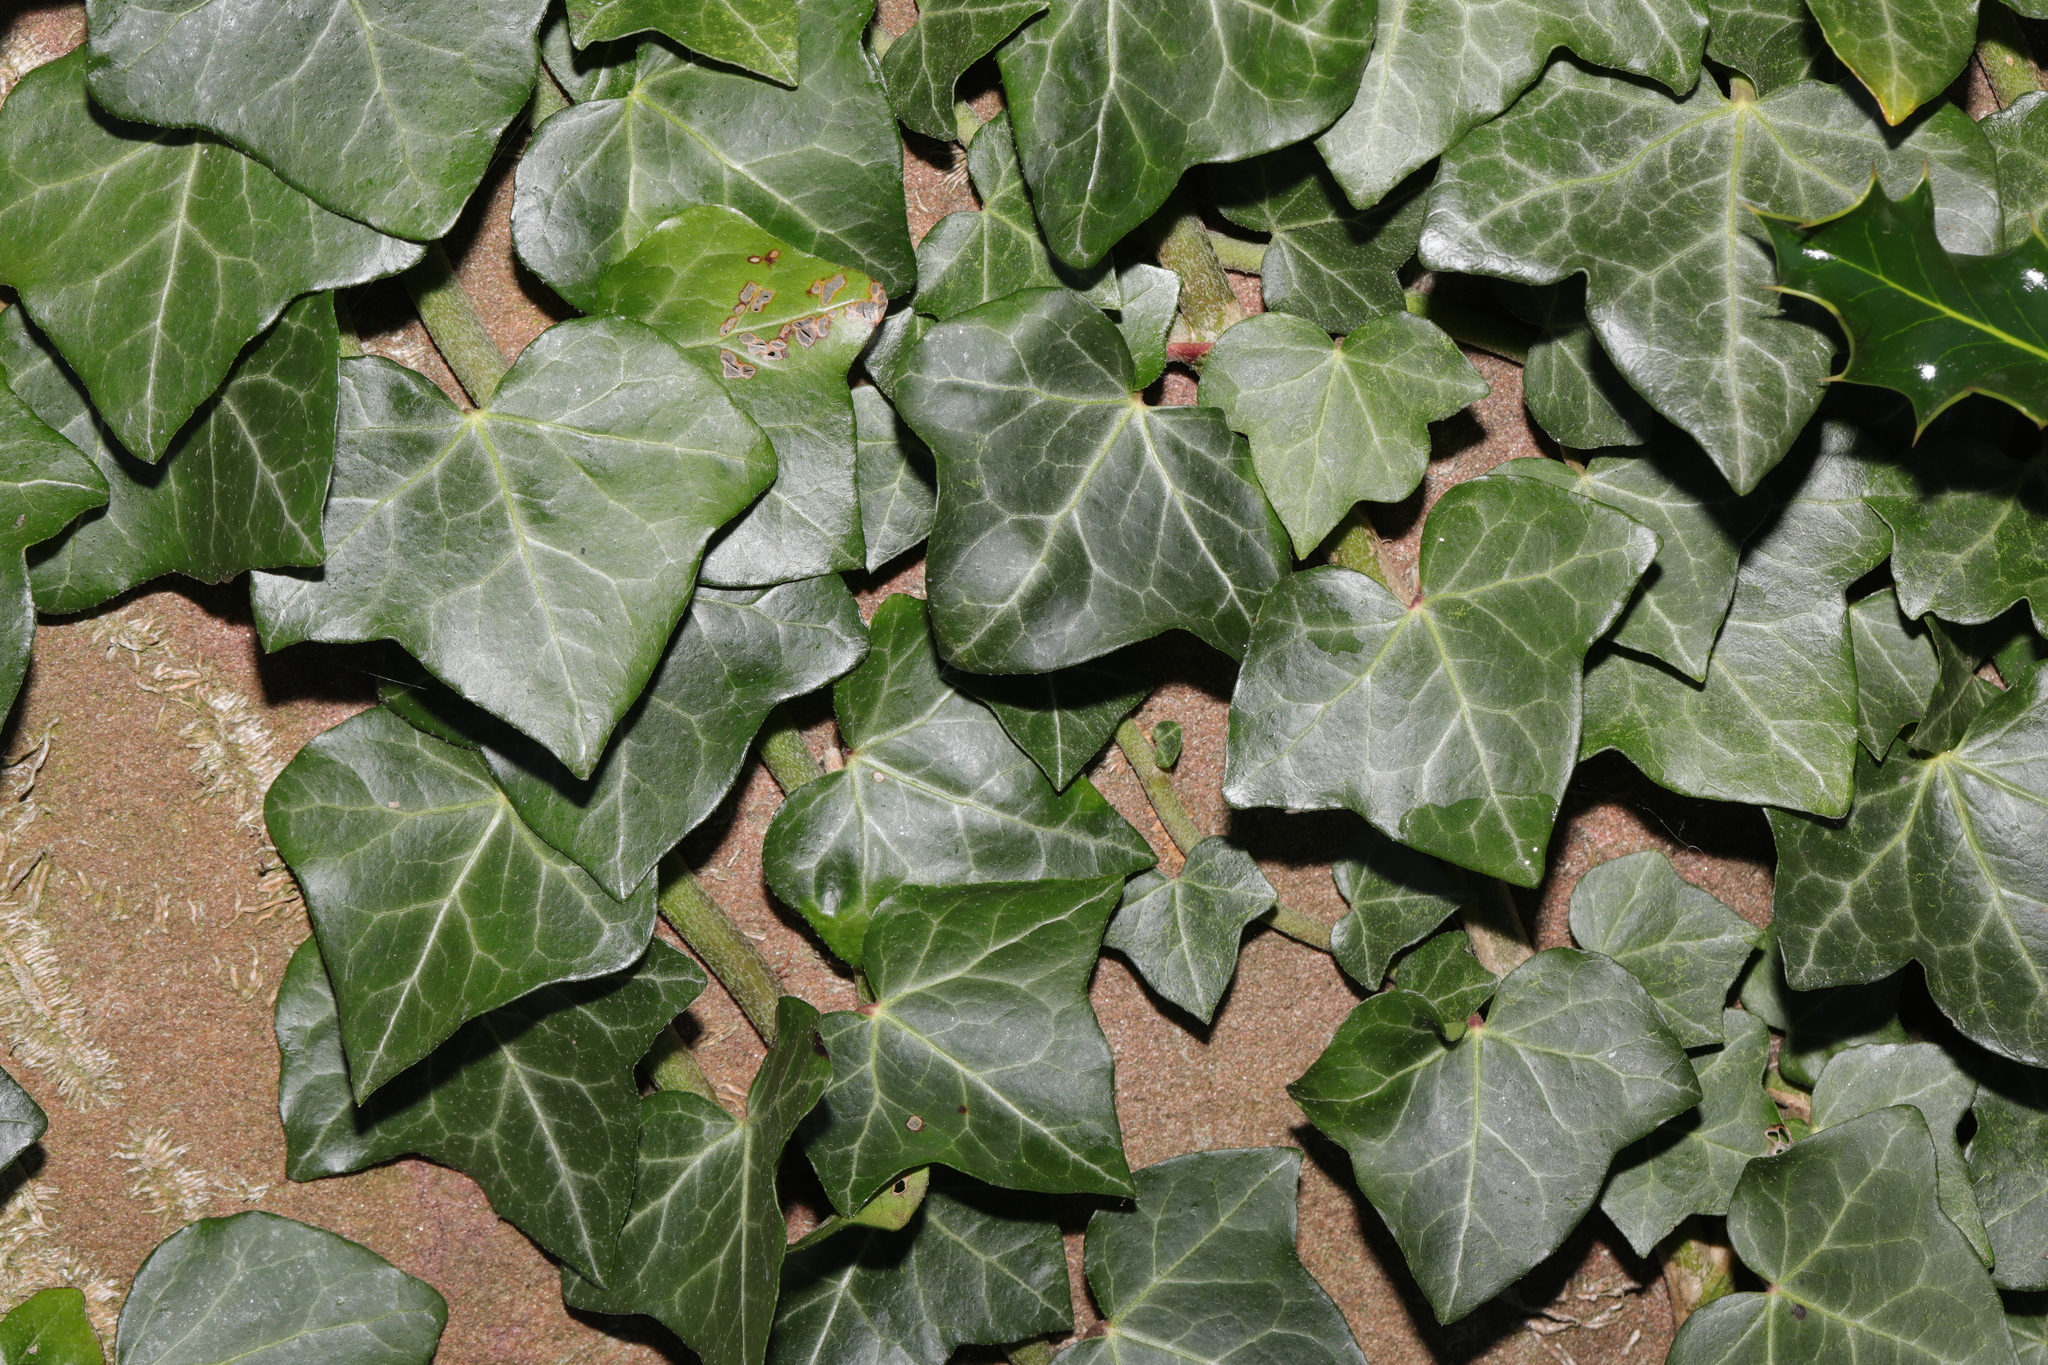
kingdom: Plantae
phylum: Tracheophyta
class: Magnoliopsida
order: Apiales
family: Araliaceae
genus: Hedera
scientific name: Hedera helix
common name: Ivy
